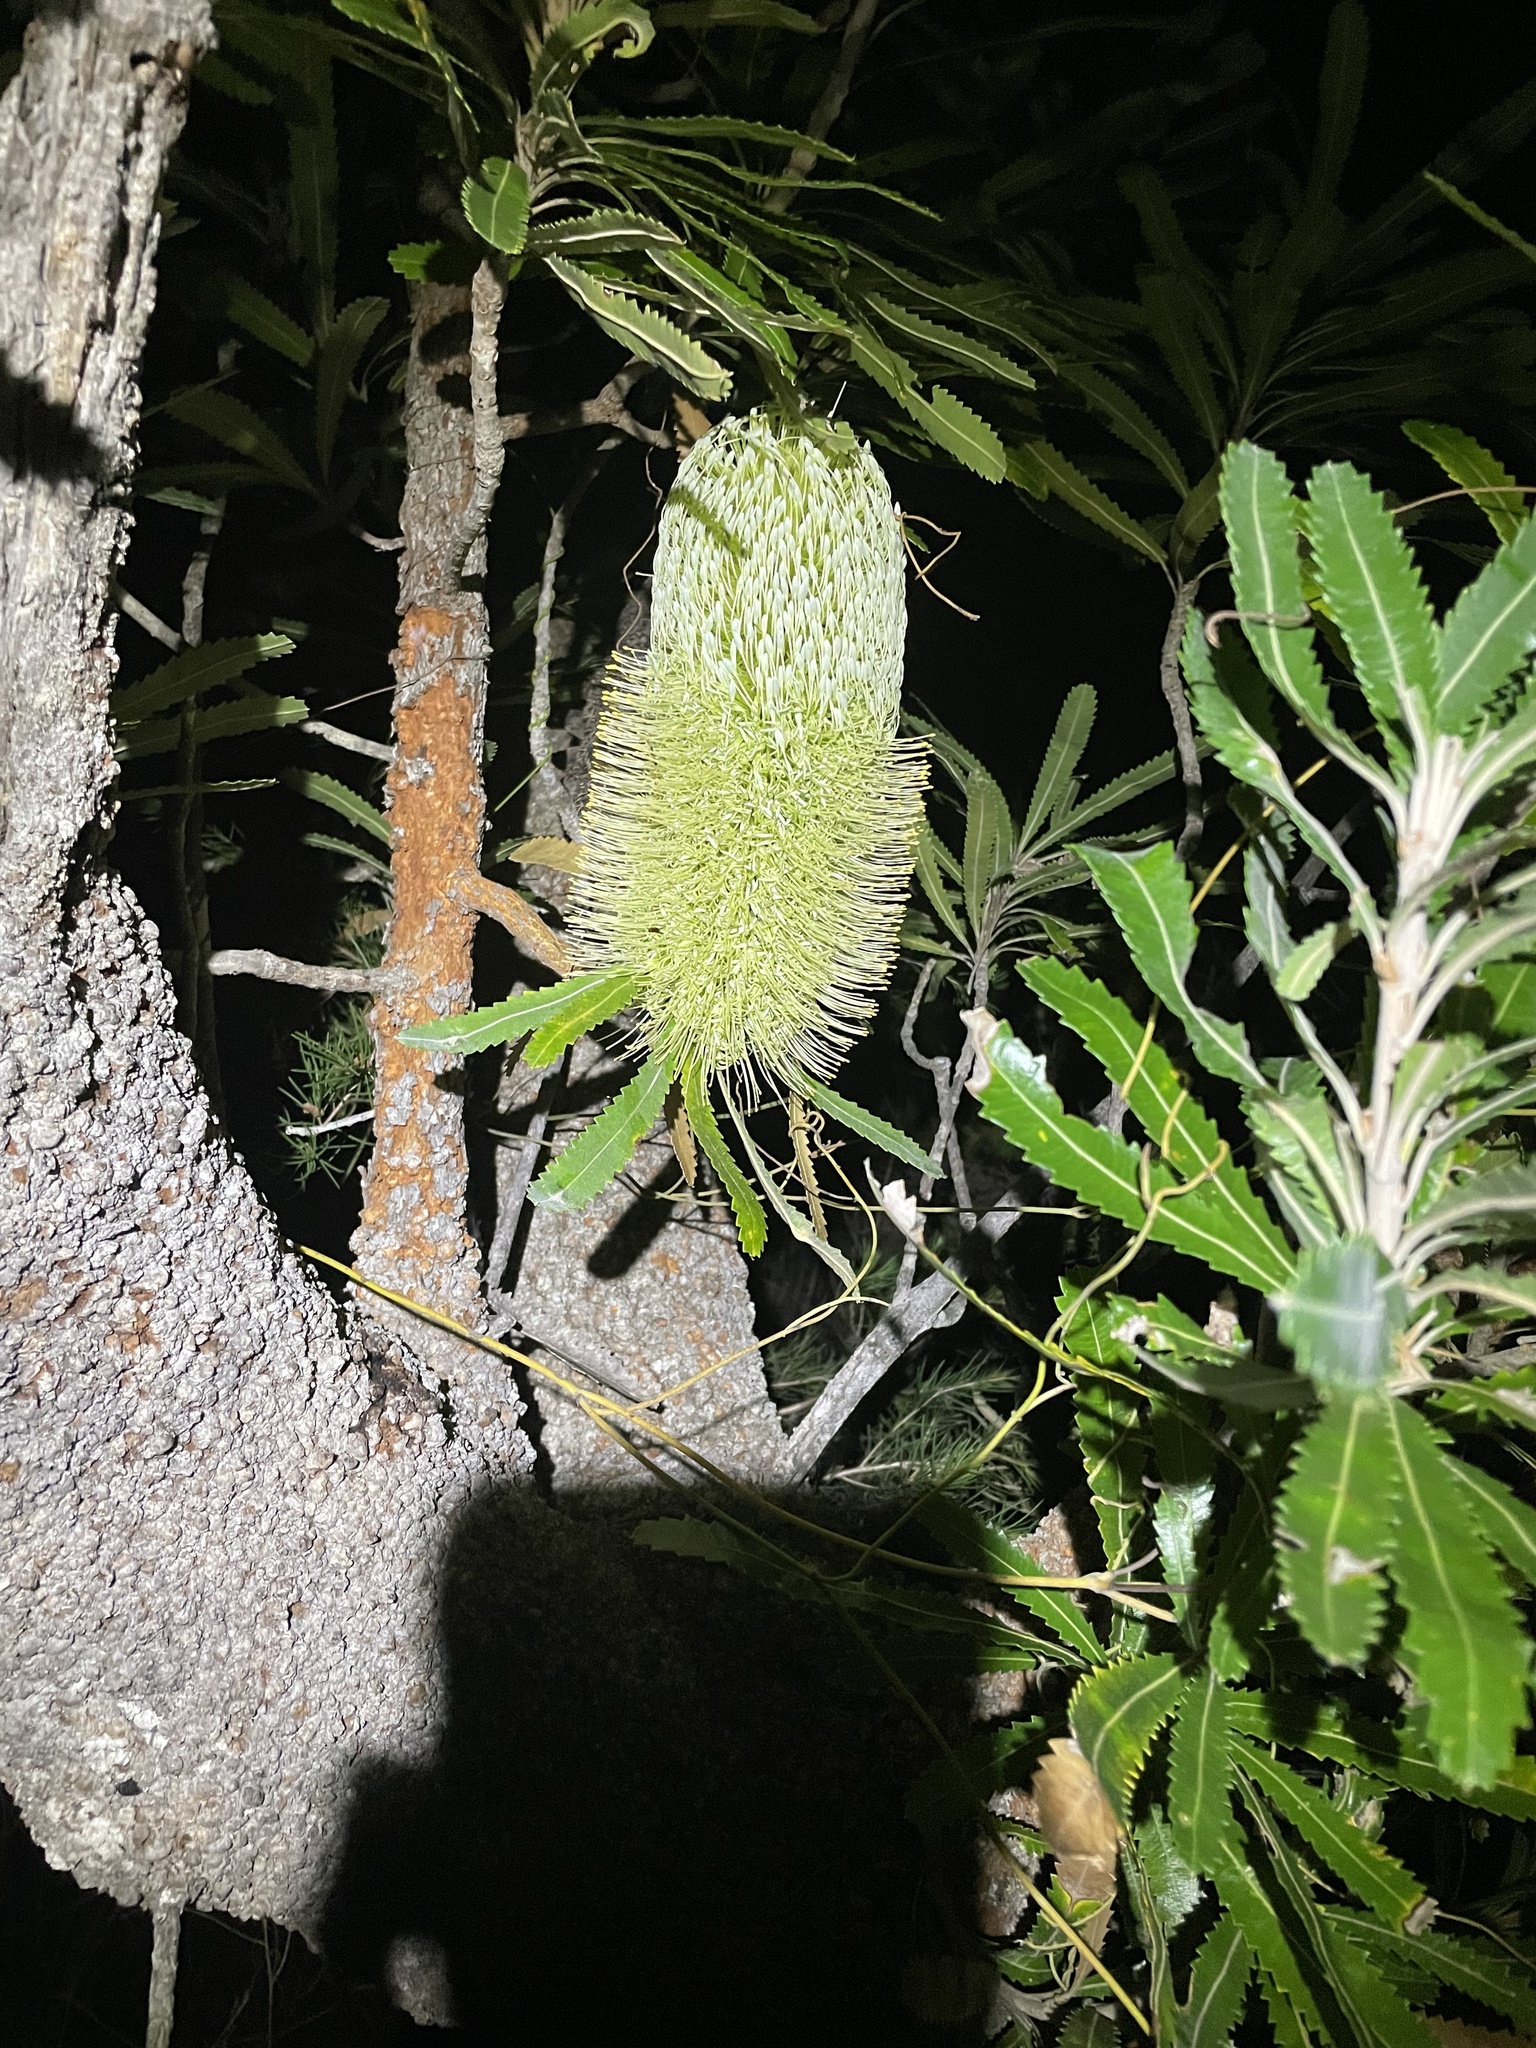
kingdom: Plantae
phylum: Tracheophyta
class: Magnoliopsida
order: Proteales
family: Proteaceae
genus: Banksia
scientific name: Banksia aemula
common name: Wallum banksia
